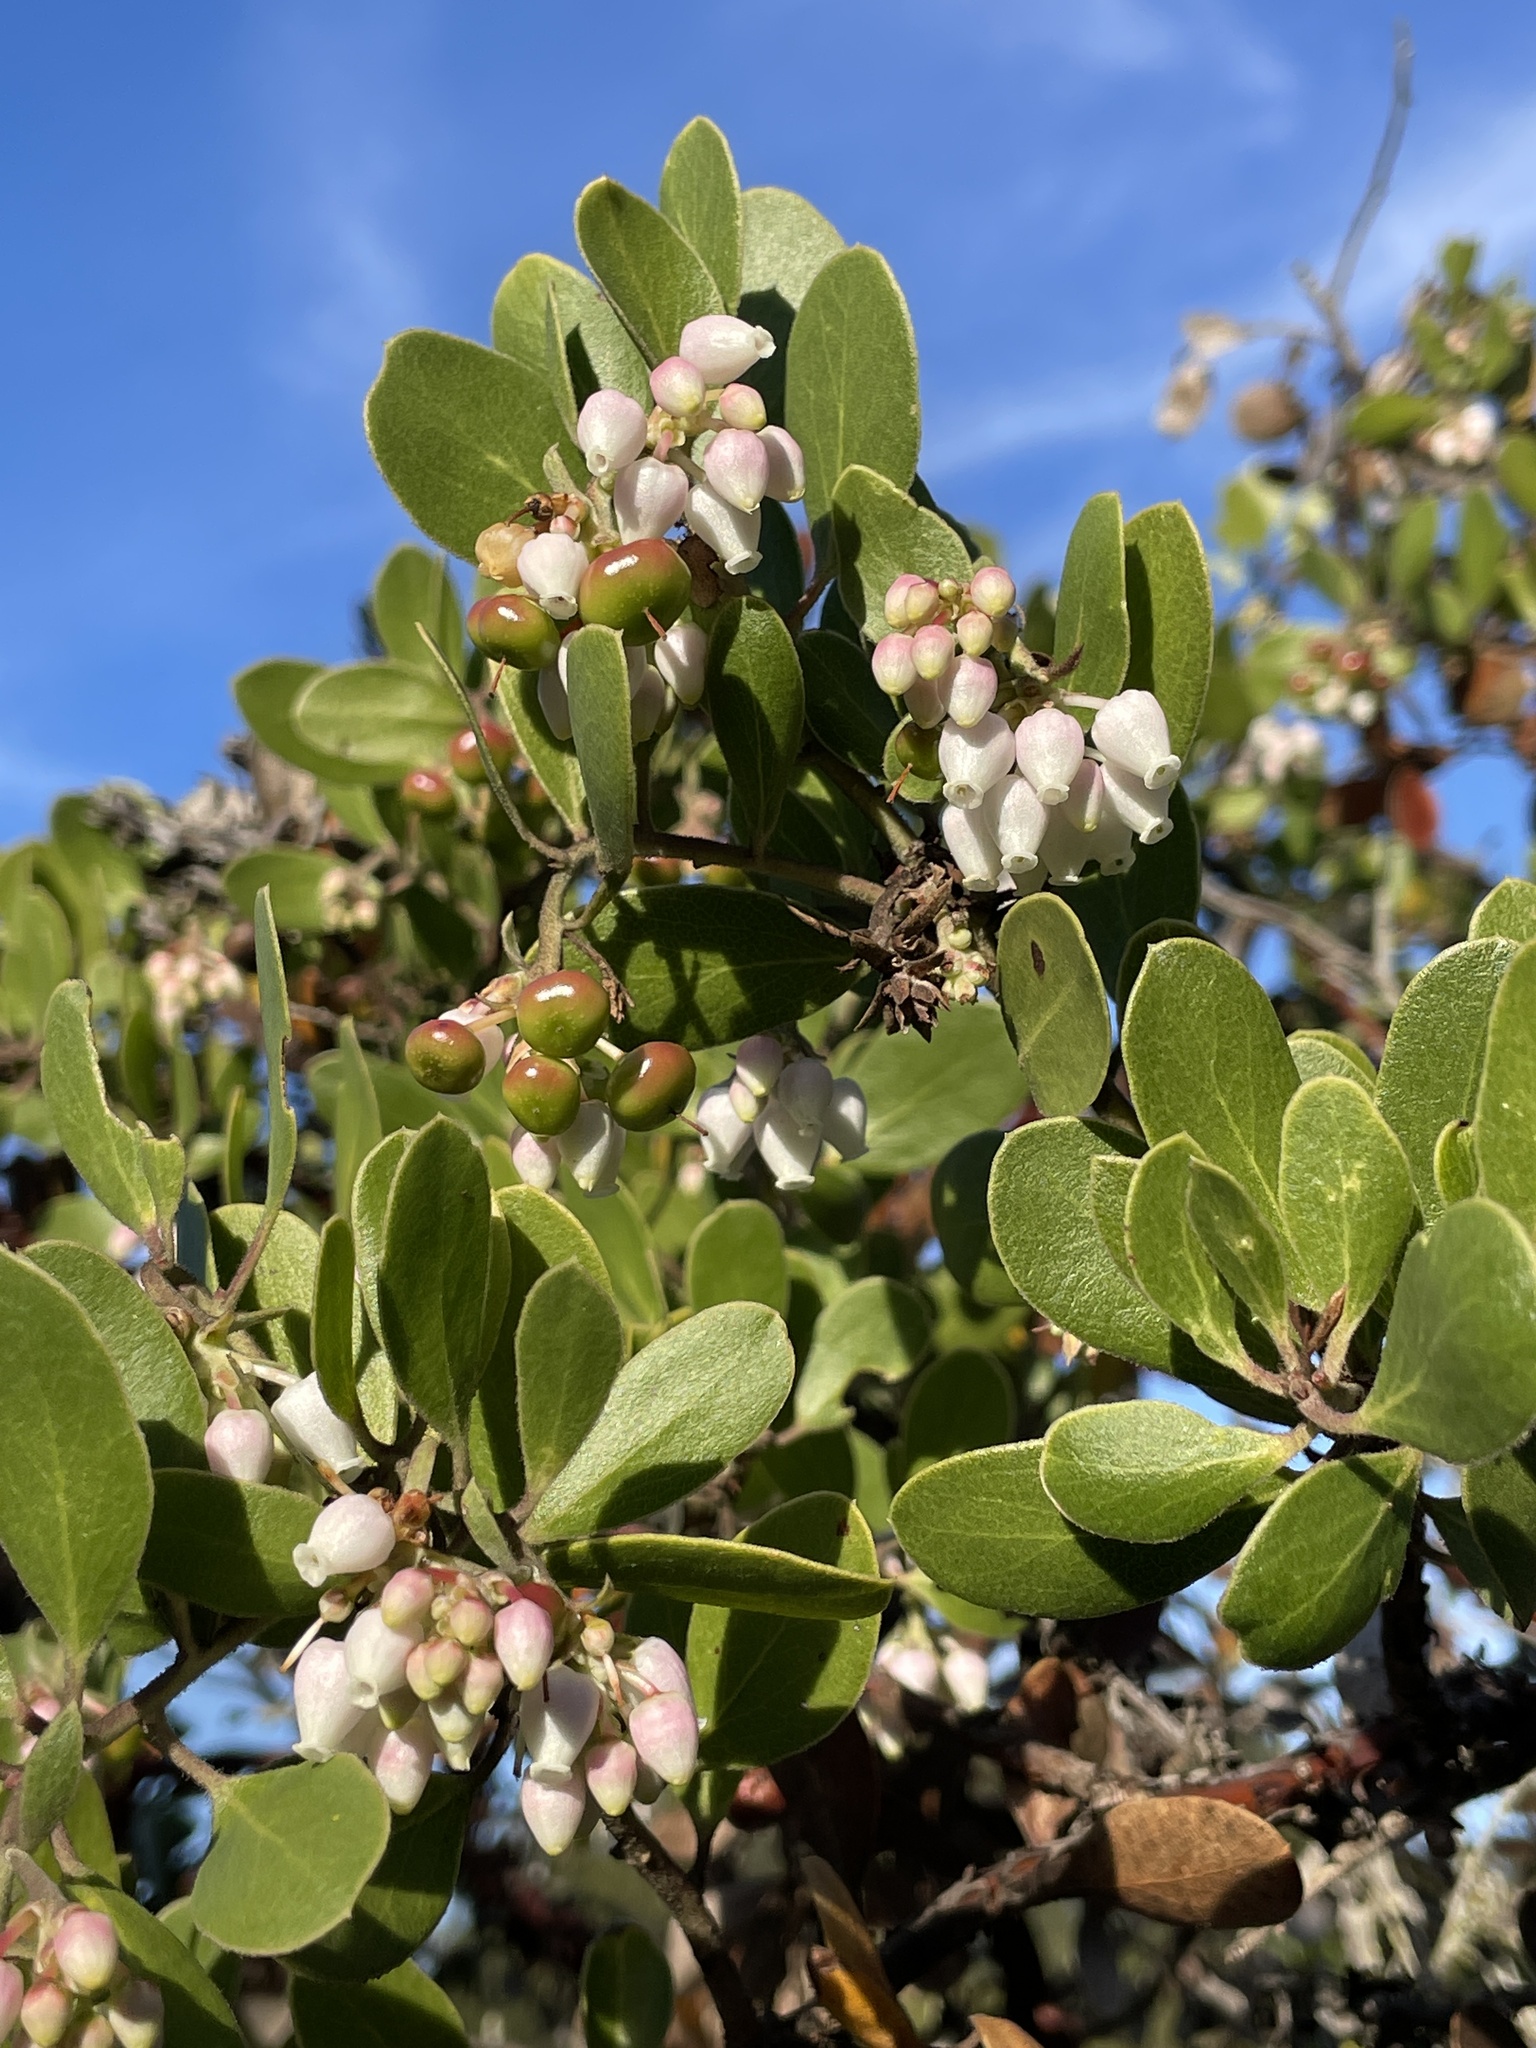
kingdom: Plantae
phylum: Tracheophyta
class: Magnoliopsida
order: Ericales
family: Ericaceae
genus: Arctostaphylos
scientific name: Arctostaphylos rudis
